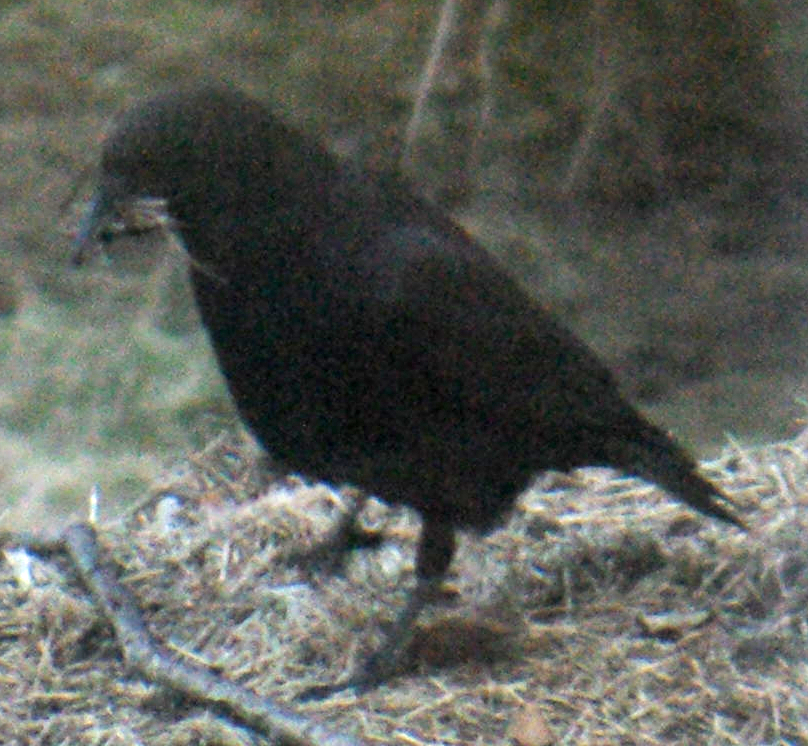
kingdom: Animalia
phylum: Chordata
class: Aves
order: Passeriformes
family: Corvidae
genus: Corvus
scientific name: Corvus brachyrhynchos
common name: American crow
